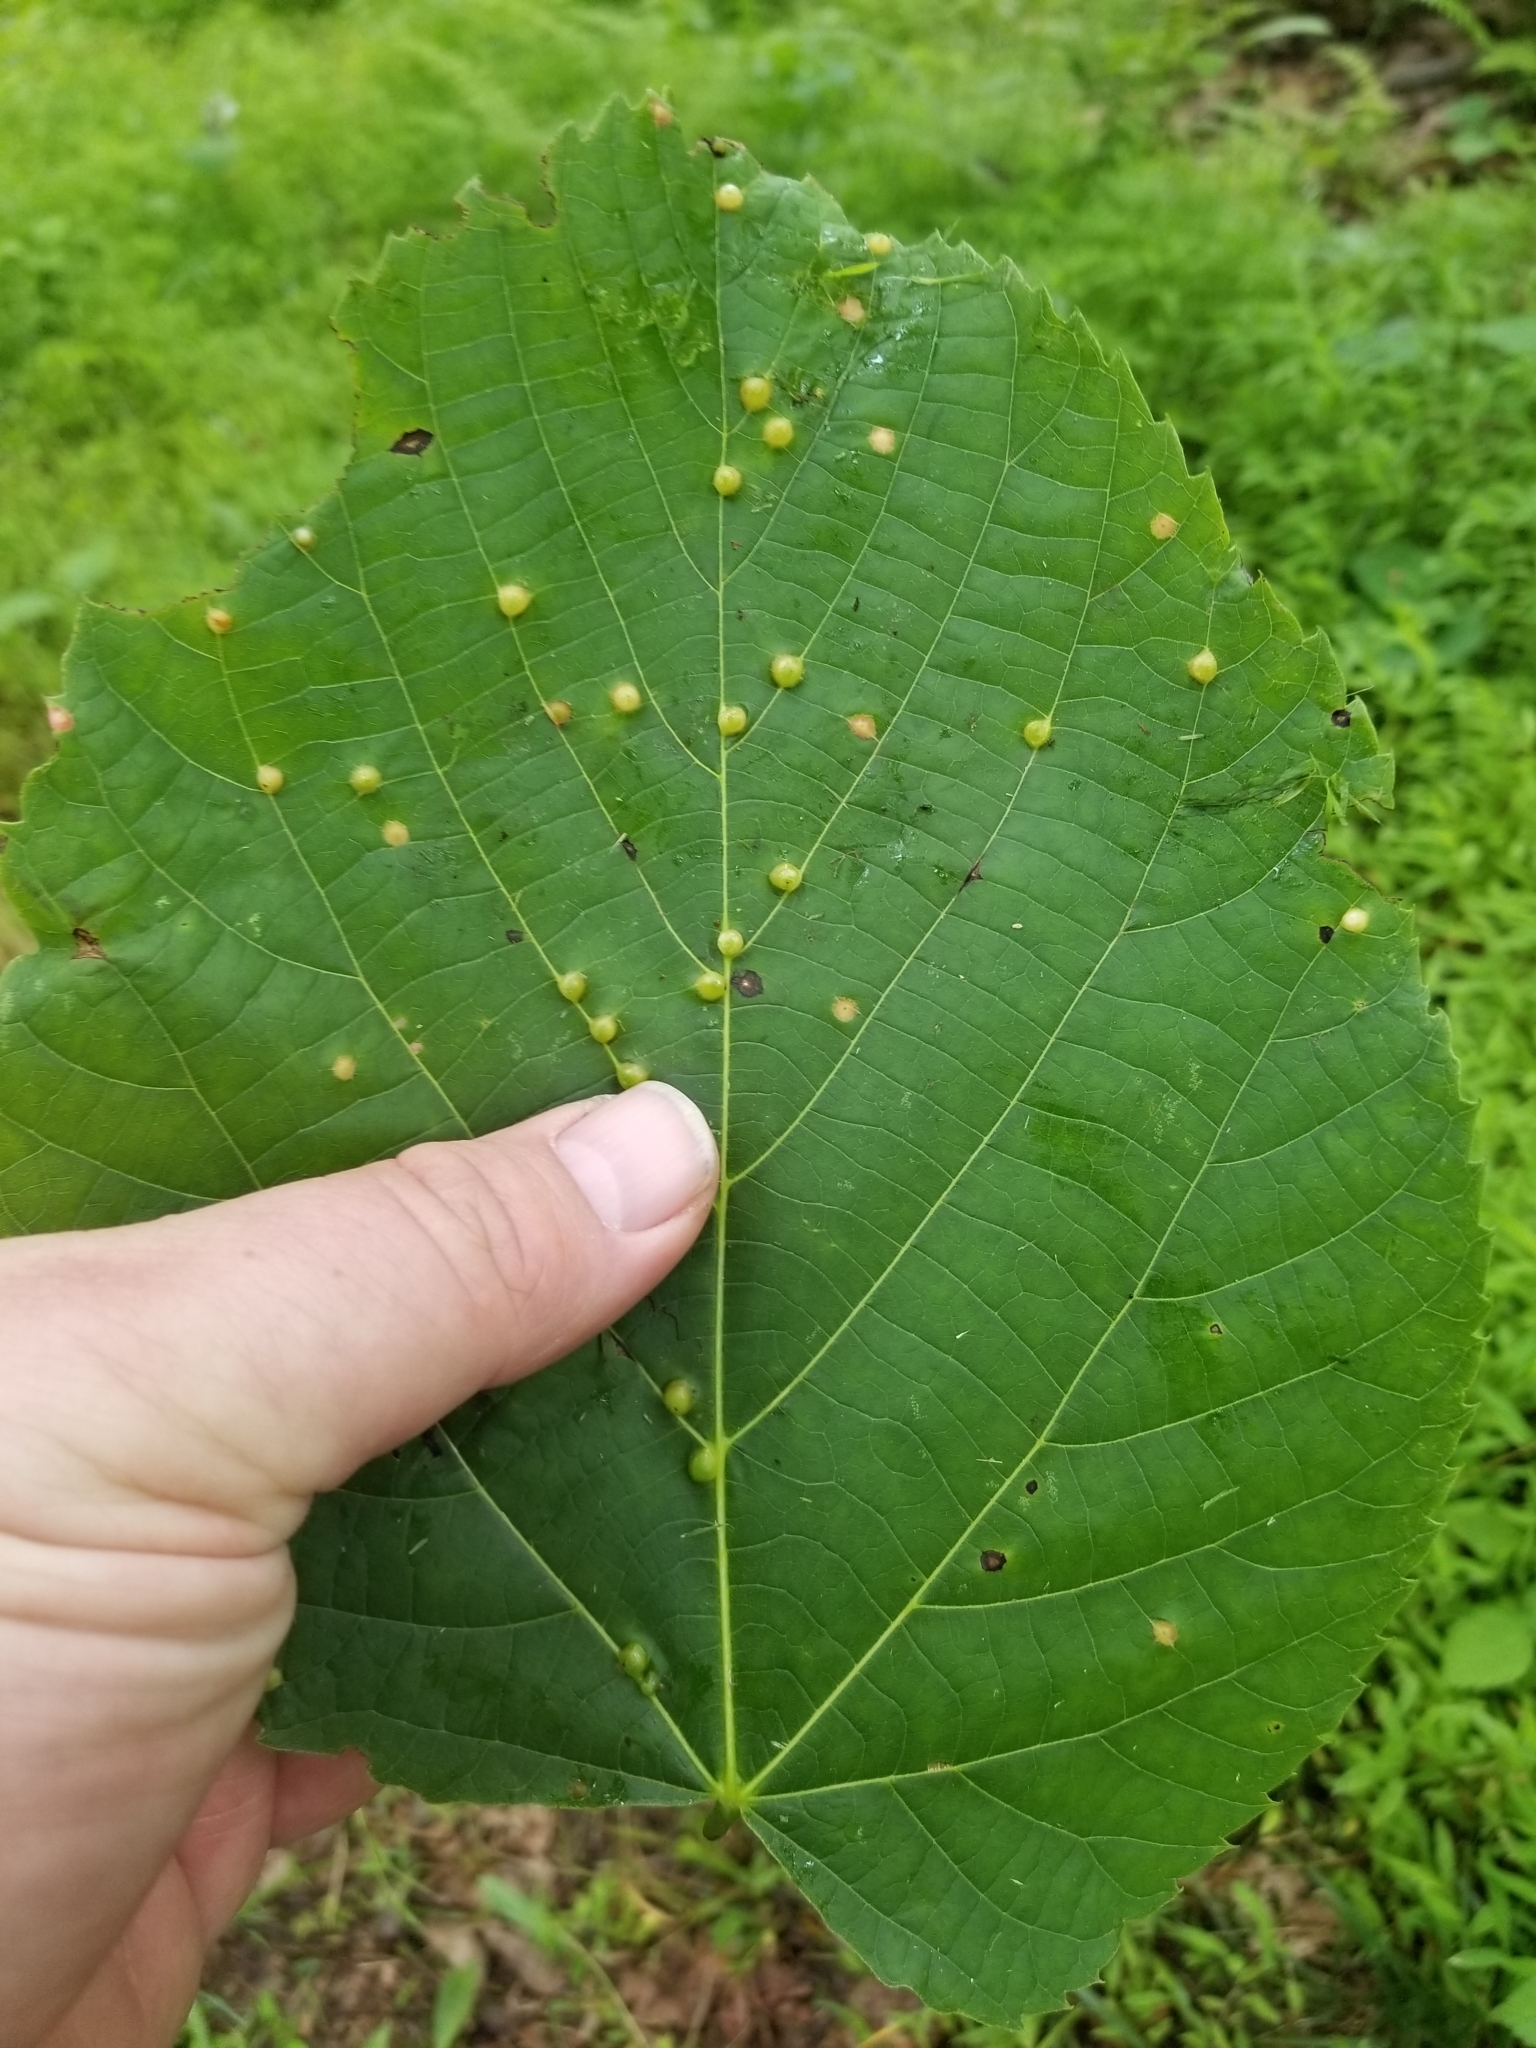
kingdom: Animalia
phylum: Arthropoda
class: Insecta
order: Diptera
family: Cecidomyiidae
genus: Contarinia
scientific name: Contarinia verrucicola
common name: Linden wart gall midge
